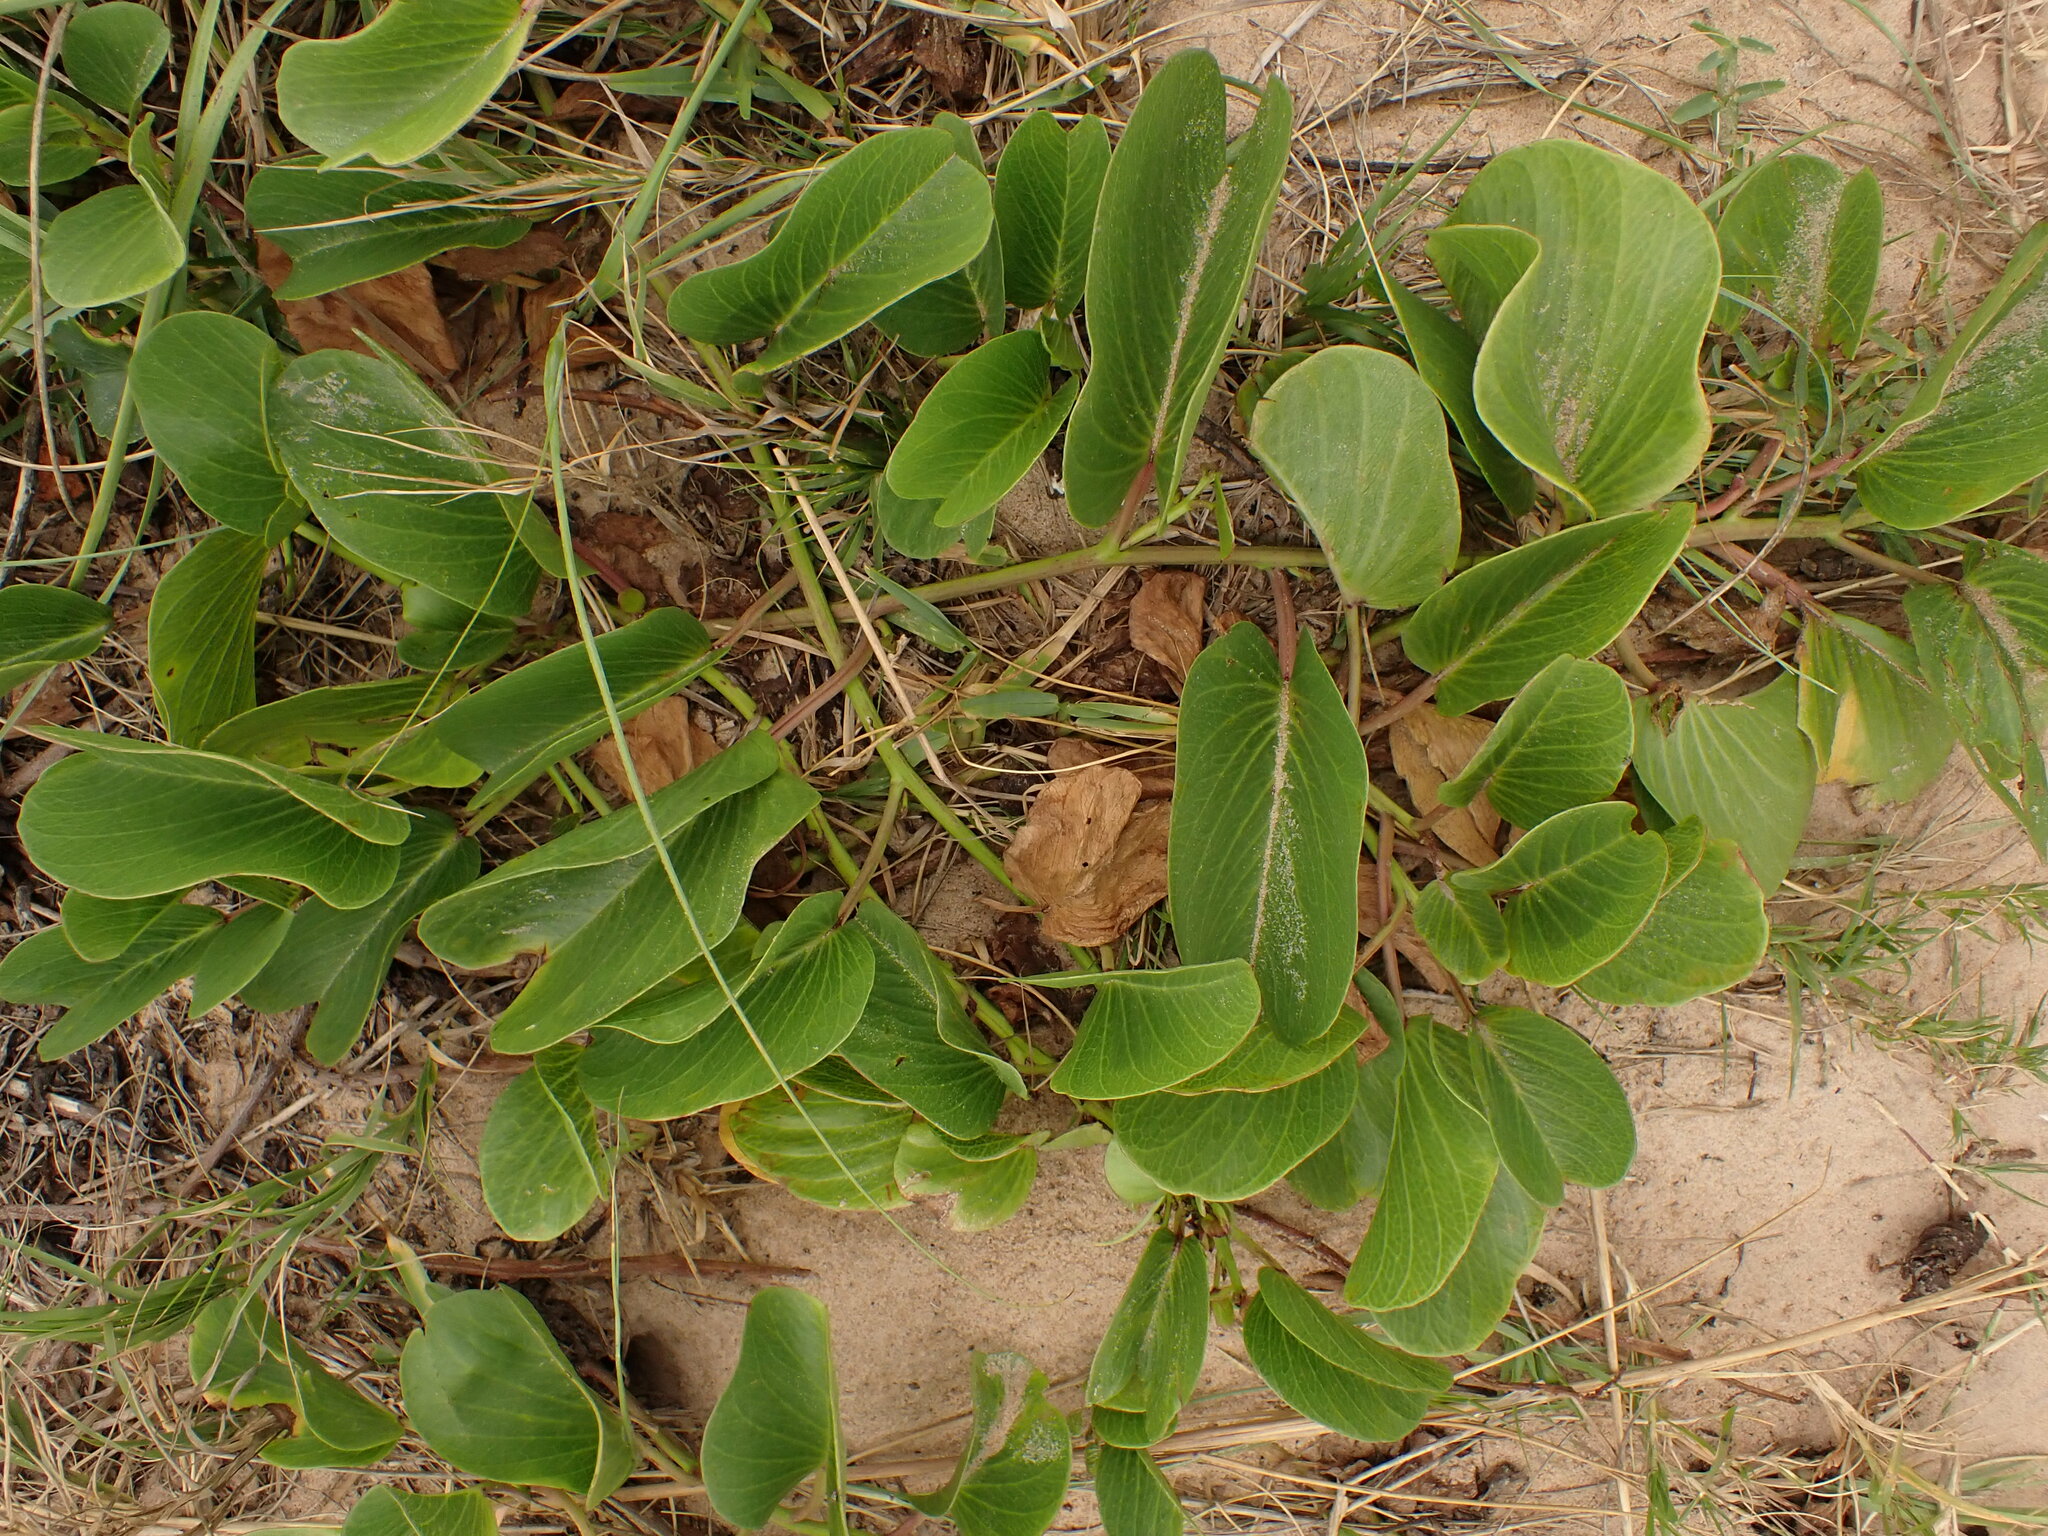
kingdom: Plantae
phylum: Tracheophyta
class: Magnoliopsida
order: Solanales
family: Convolvulaceae
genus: Ipomoea
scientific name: Ipomoea pes-caprae
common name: Beach morning glory
